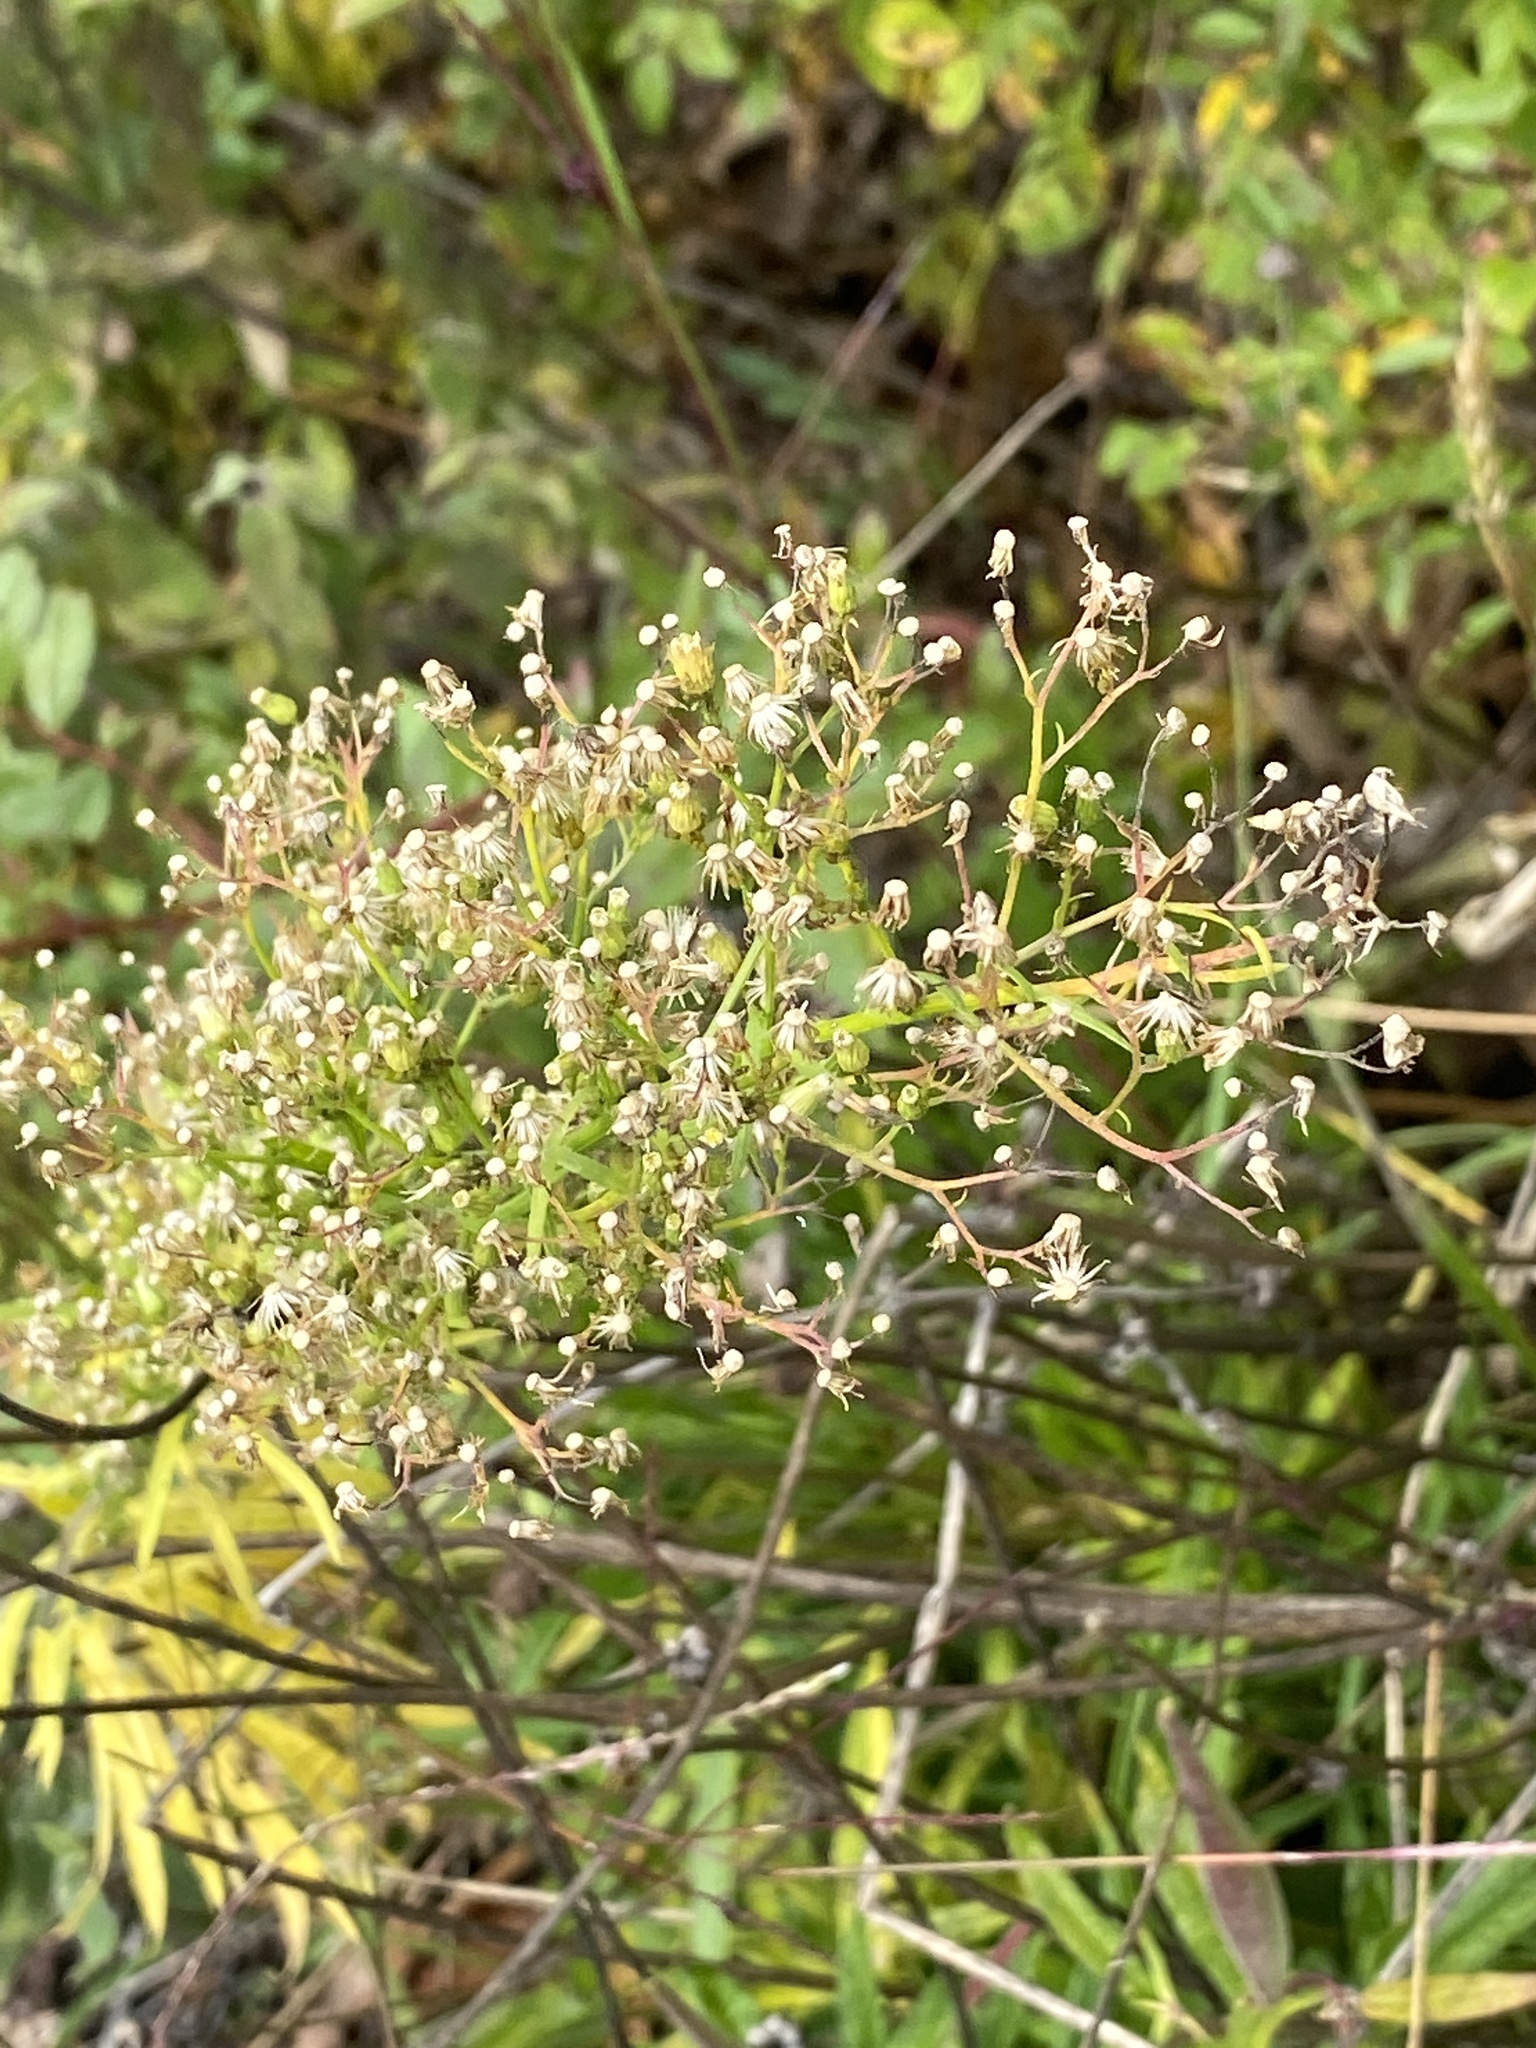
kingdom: Plantae
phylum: Tracheophyta
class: Magnoliopsida
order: Asterales
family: Asteraceae
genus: Erigeron
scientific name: Erigeron canadensis
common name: Canadian fleabane
